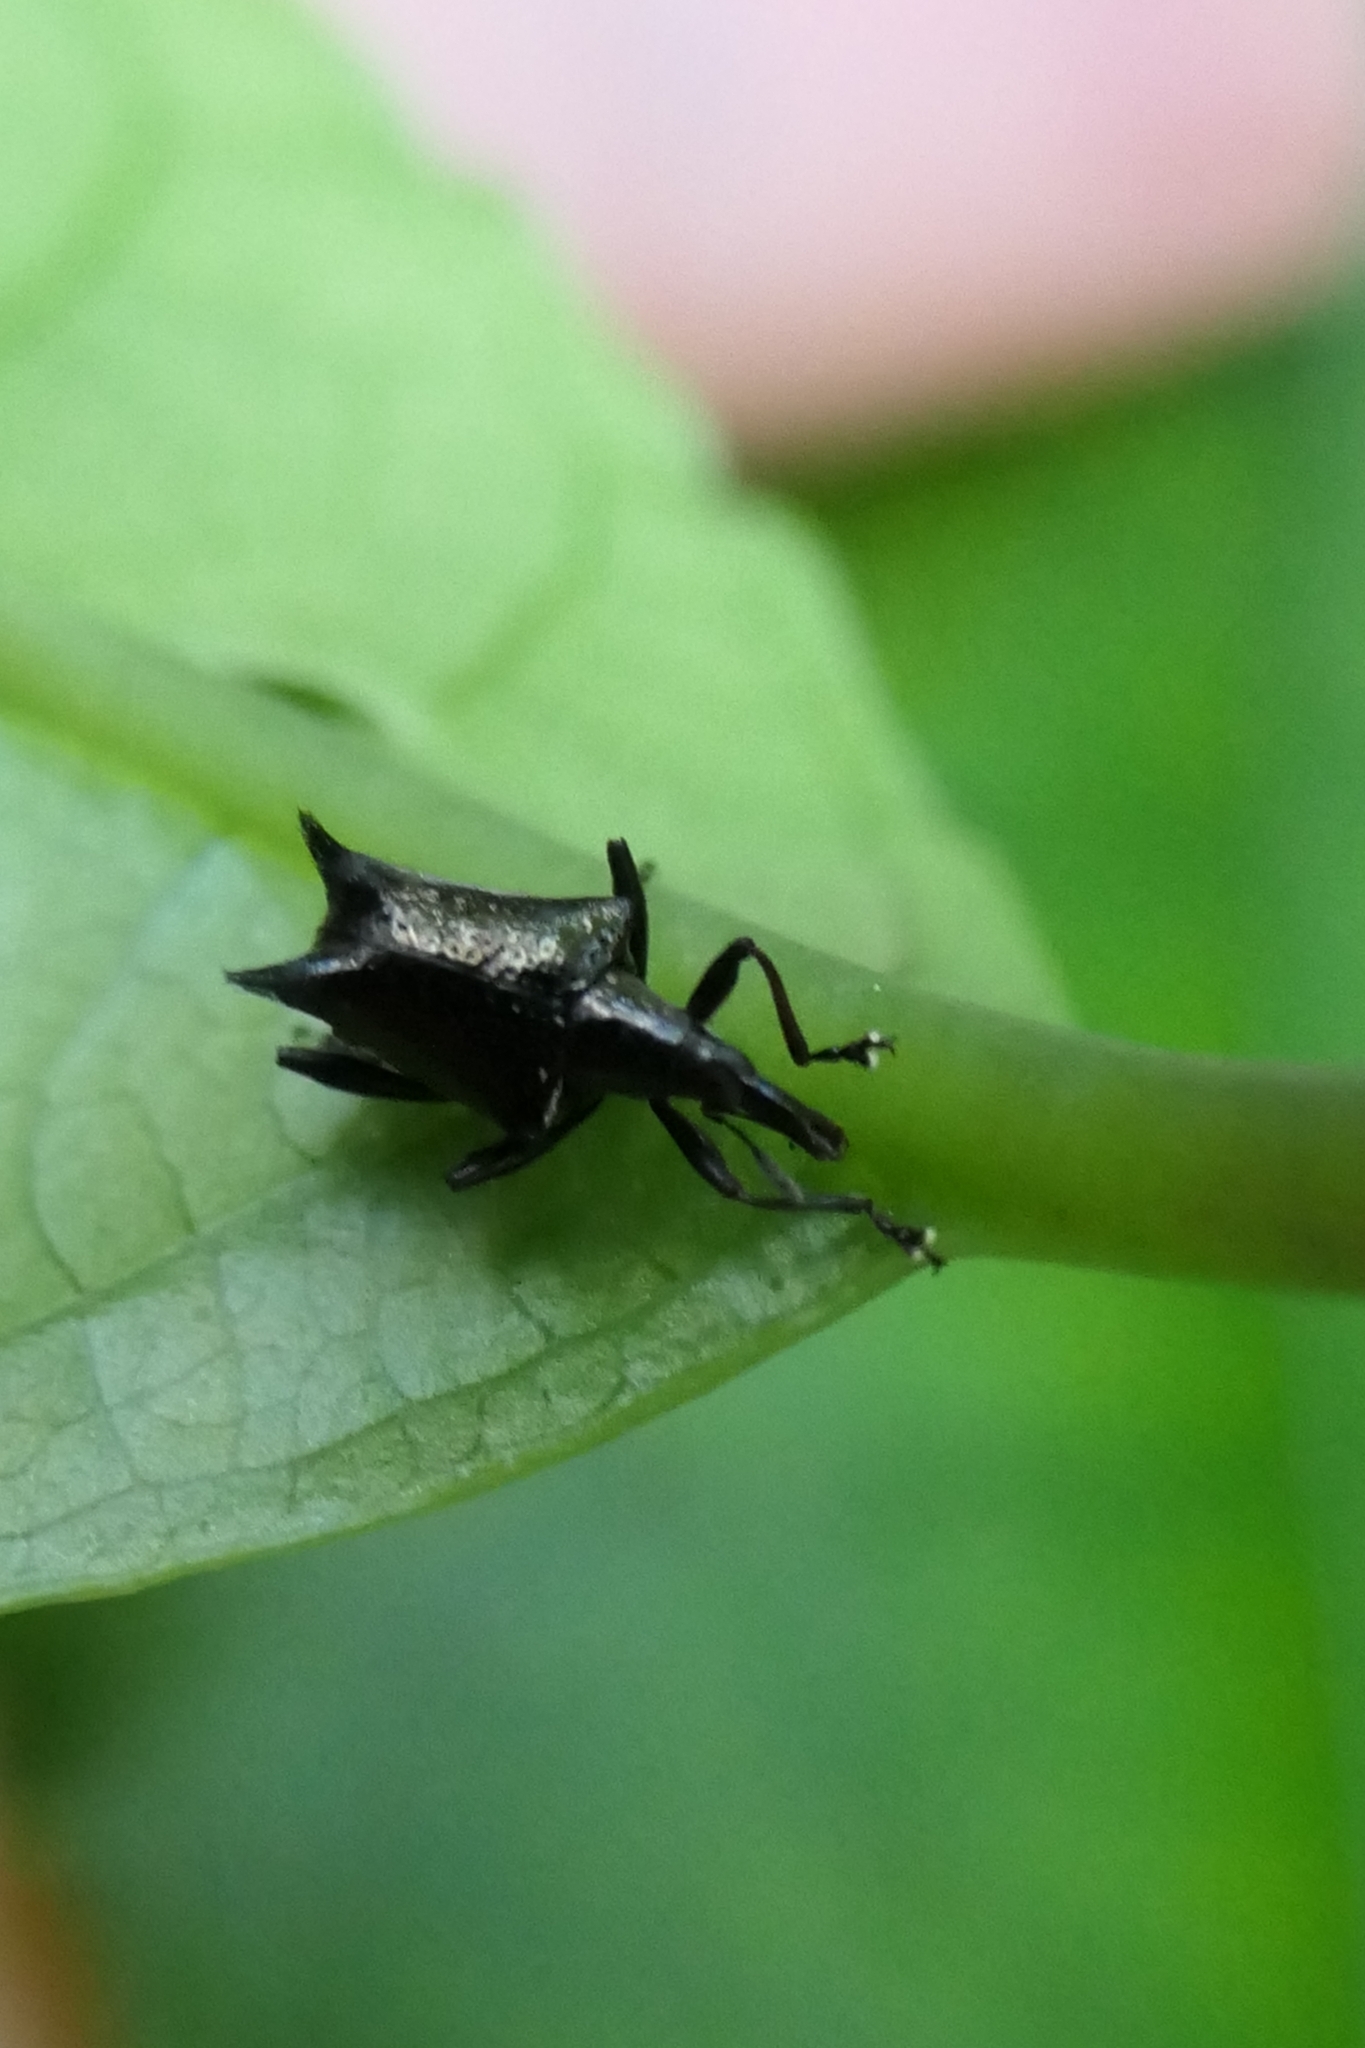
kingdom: Animalia
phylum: Arthropoda
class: Insecta
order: Coleoptera
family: Curculionidae
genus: Scolopterus
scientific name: Scolopterus penicillatus
